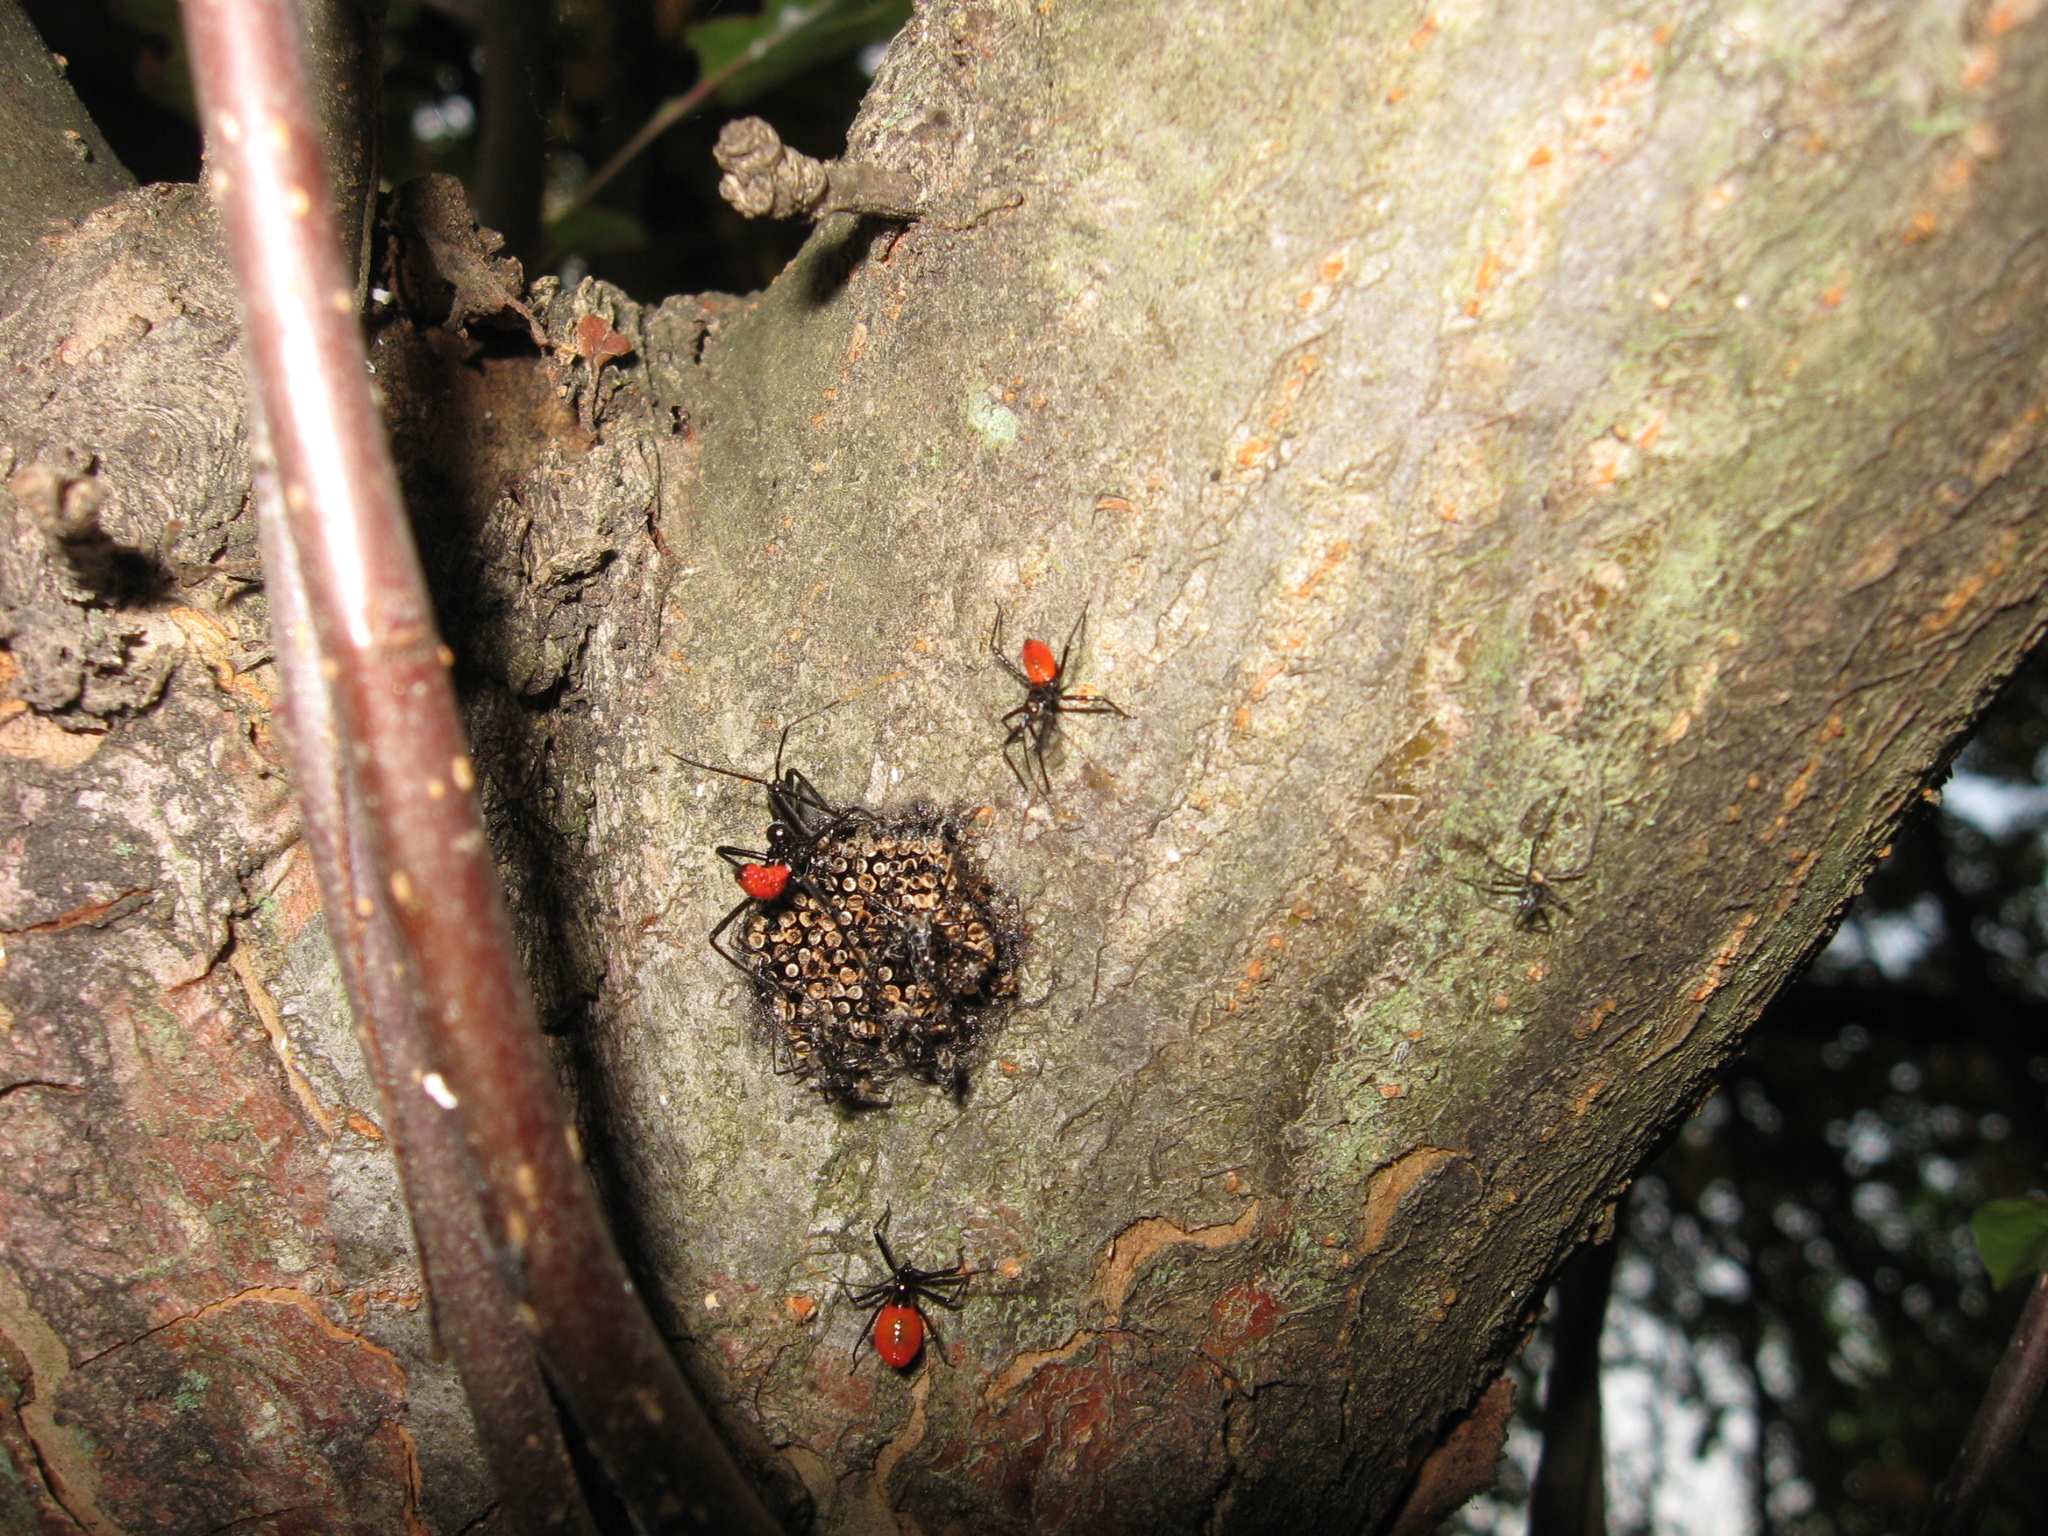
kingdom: Animalia
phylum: Arthropoda
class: Insecta
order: Hemiptera
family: Reduviidae
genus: Arilus
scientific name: Arilus cristatus
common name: North american wheel bug
